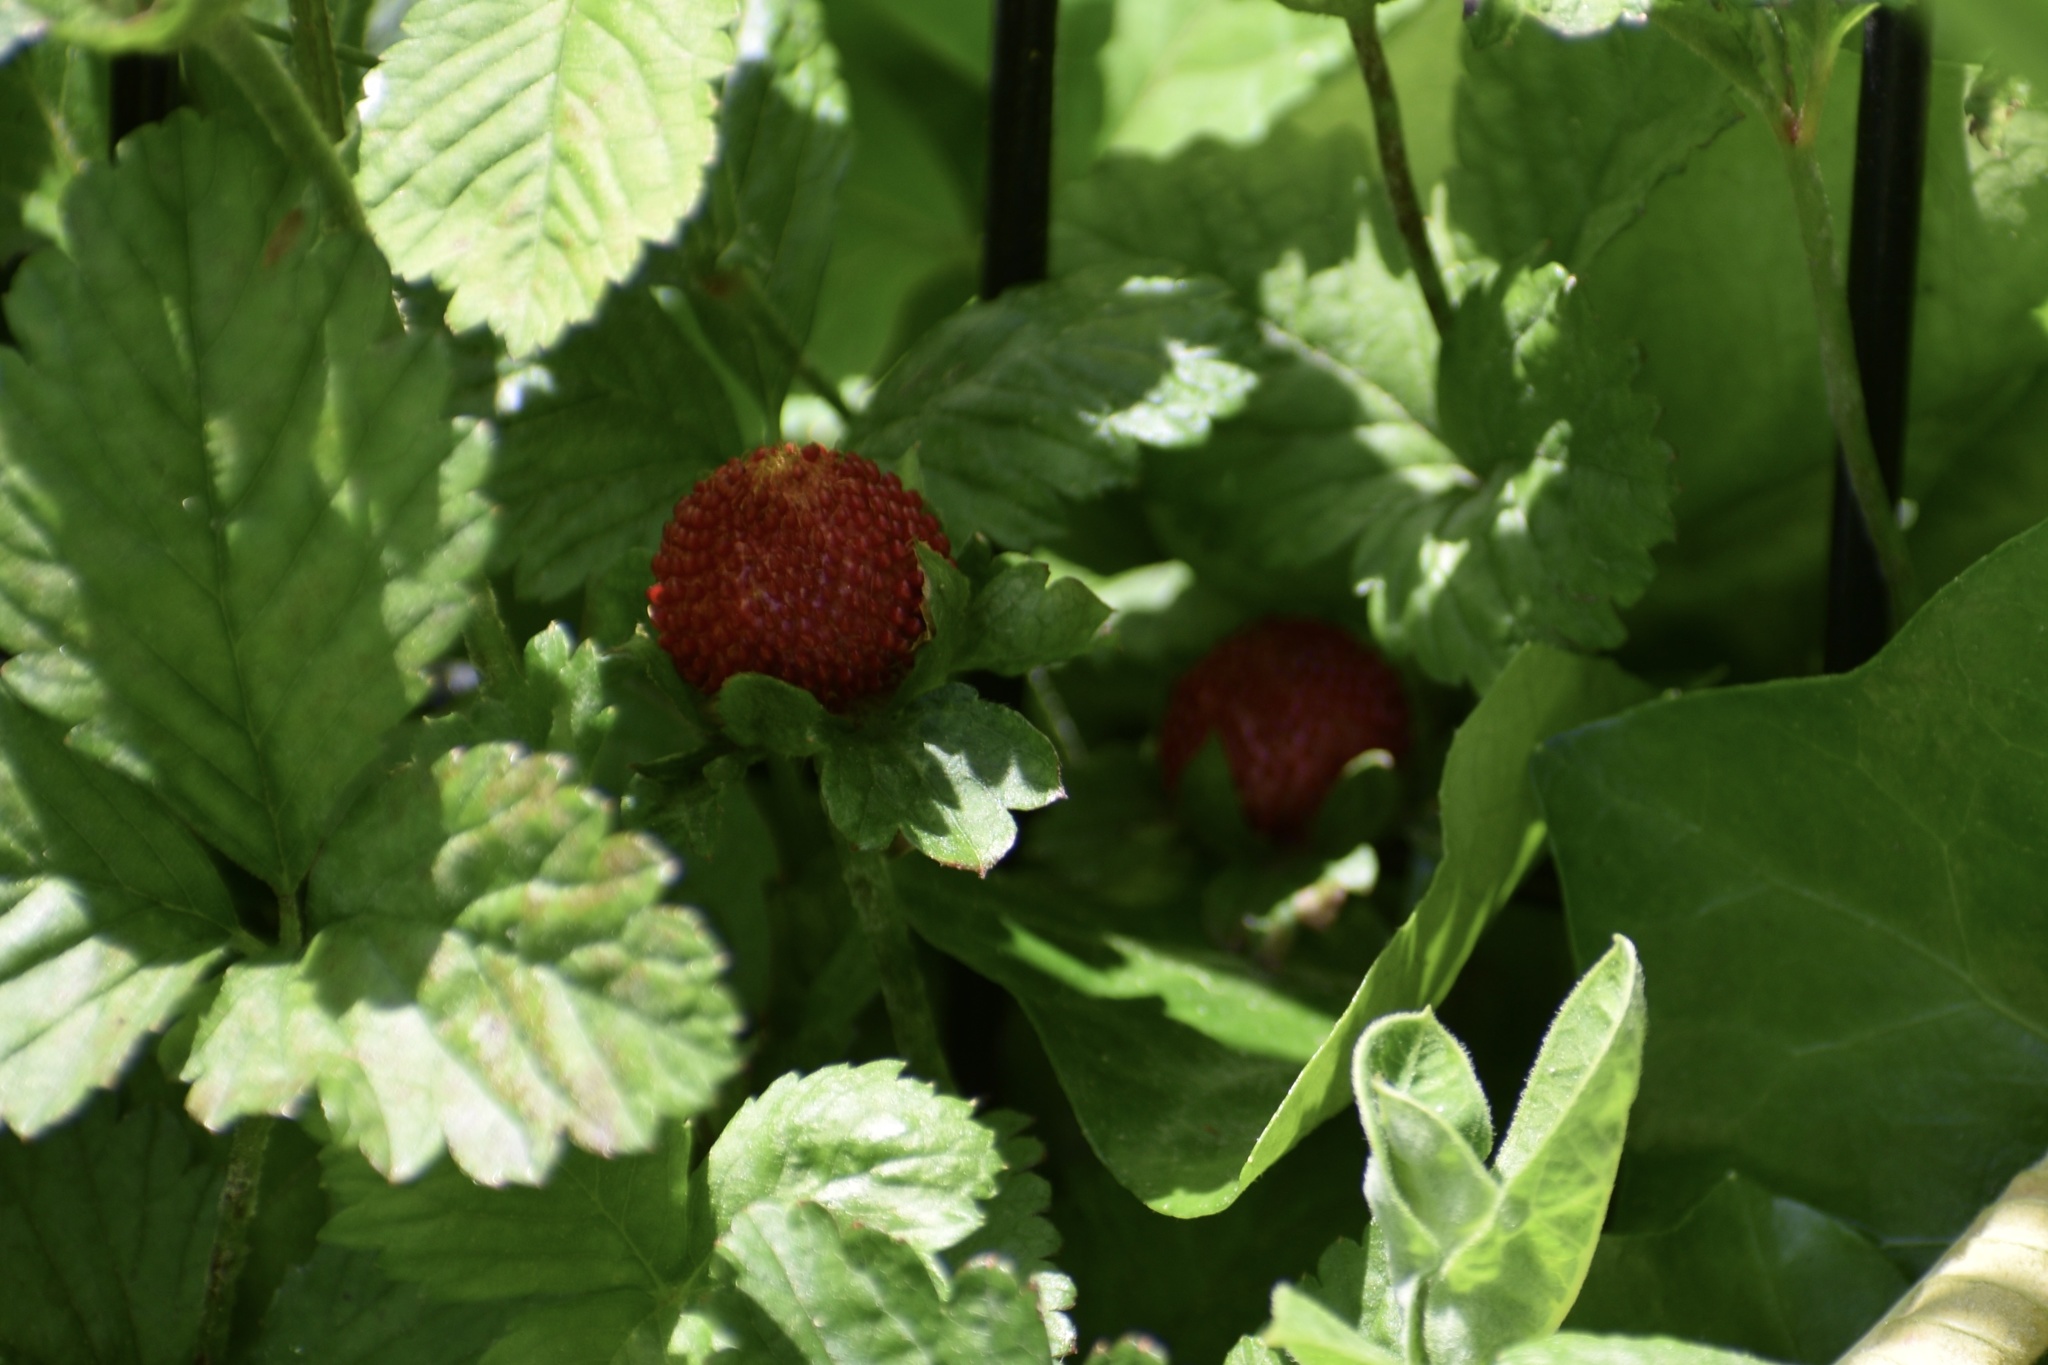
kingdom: Plantae
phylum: Tracheophyta
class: Magnoliopsida
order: Rosales
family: Rosaceae
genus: Potentilla
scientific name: Potentilla indica
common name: Yellow-flowered strawberry
